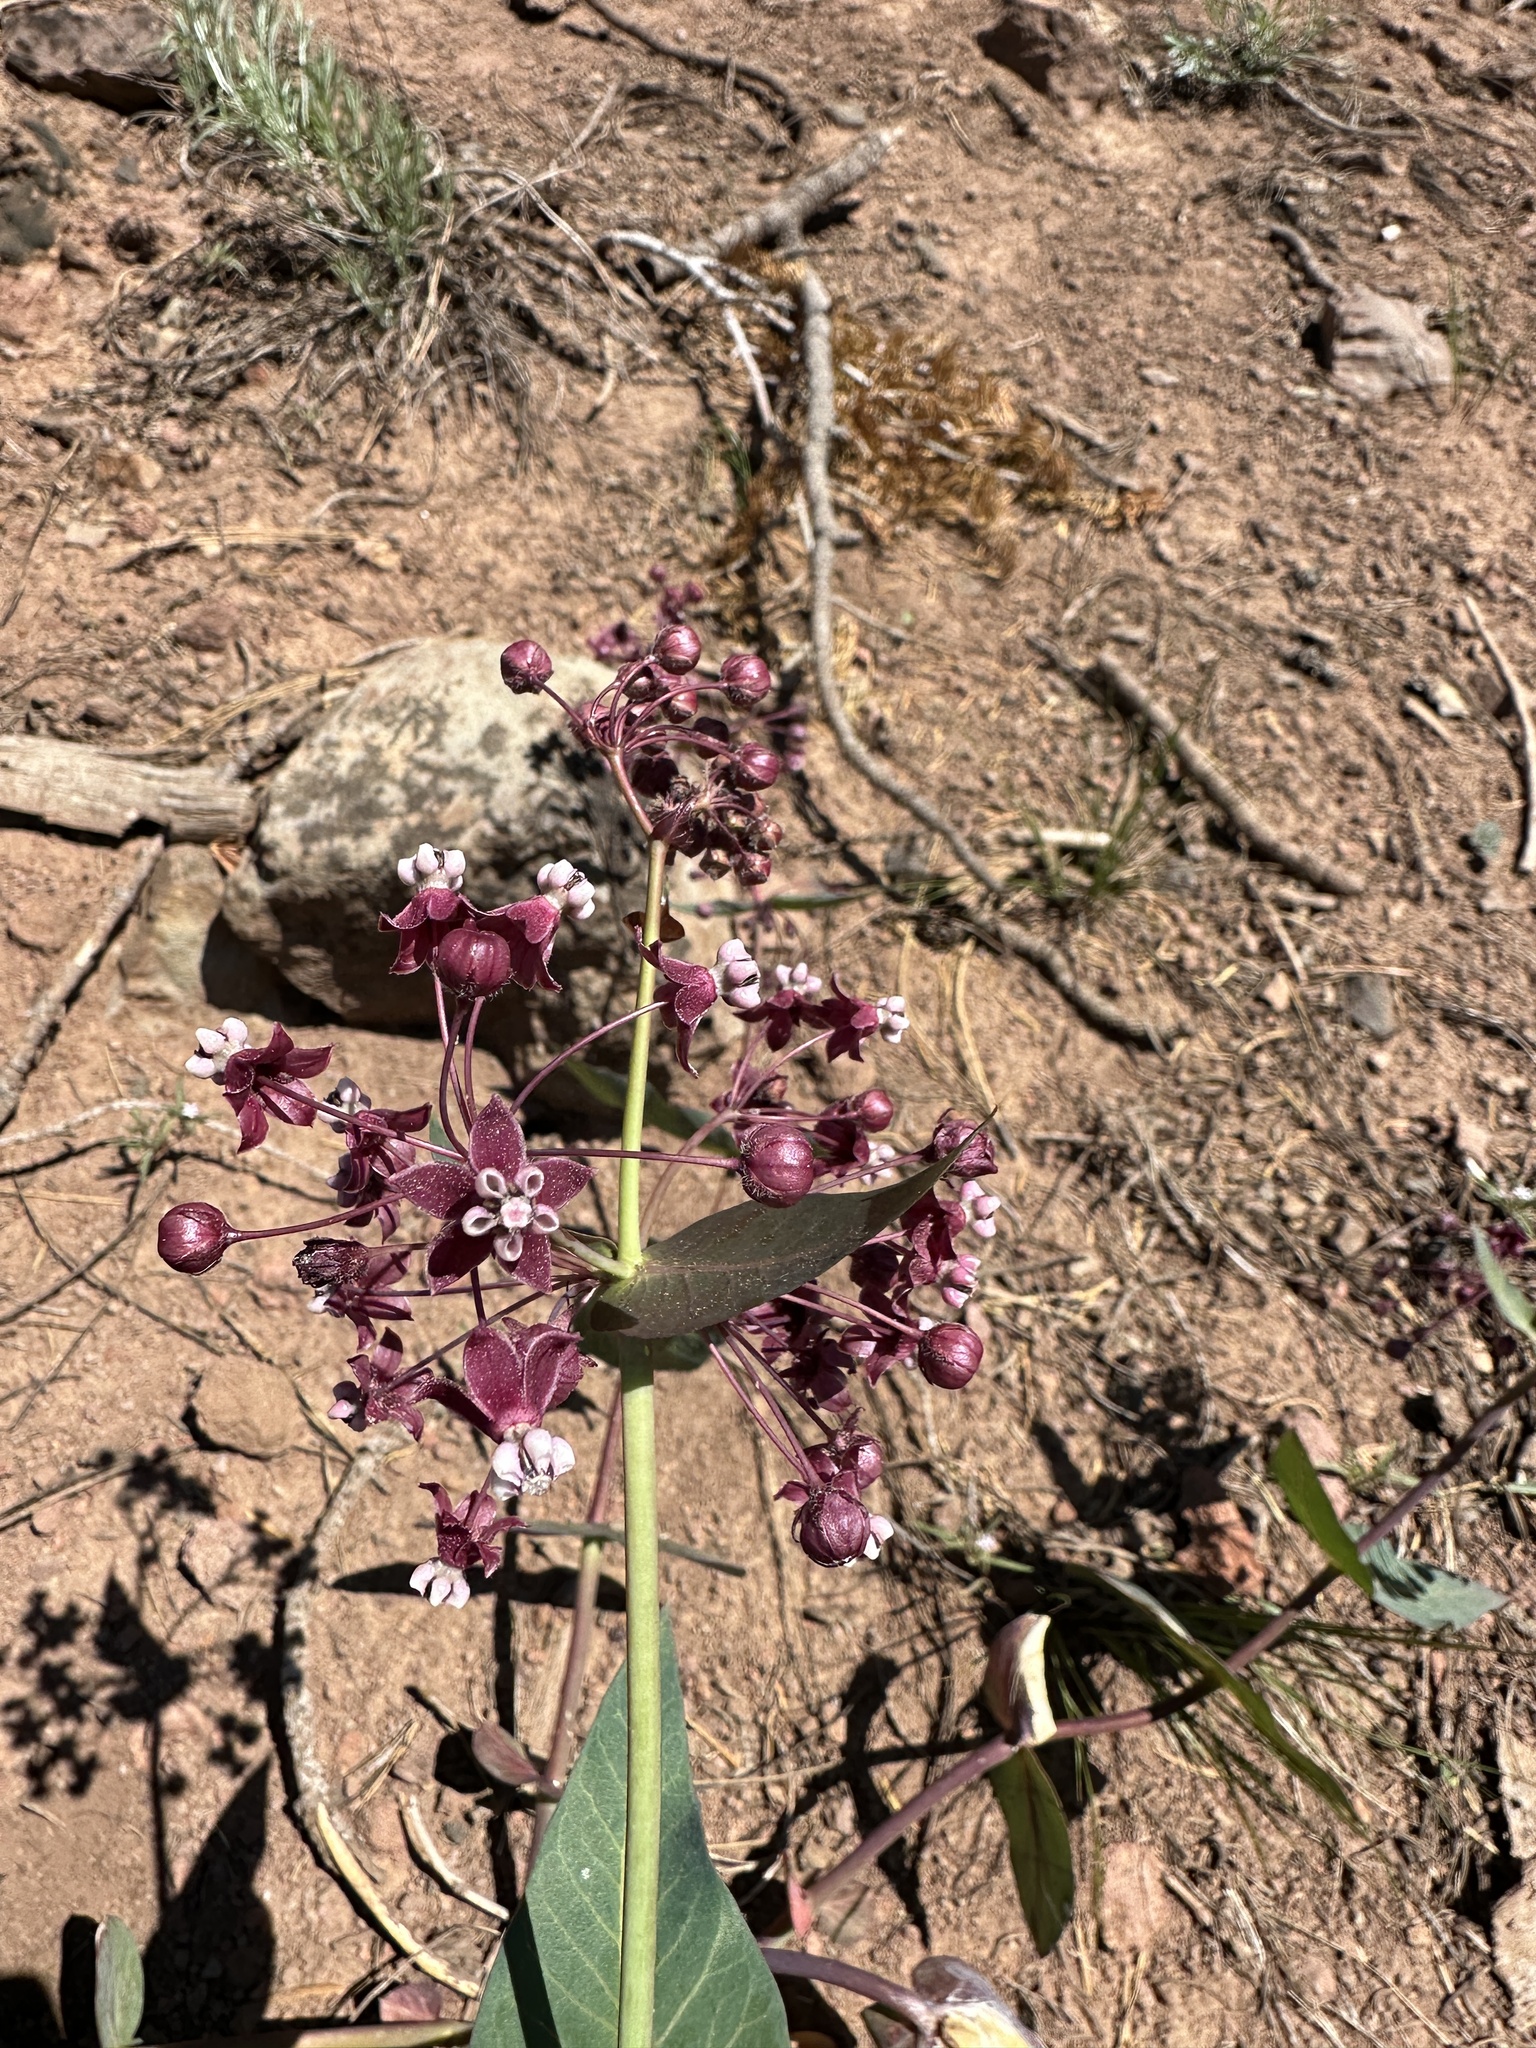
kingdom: Plantae
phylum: Tracheophyta
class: Magnoliopsida
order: Gentianales
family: Apocynaceae
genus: Asclepias
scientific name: Asclepias cordifolia
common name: Purple milkweed
